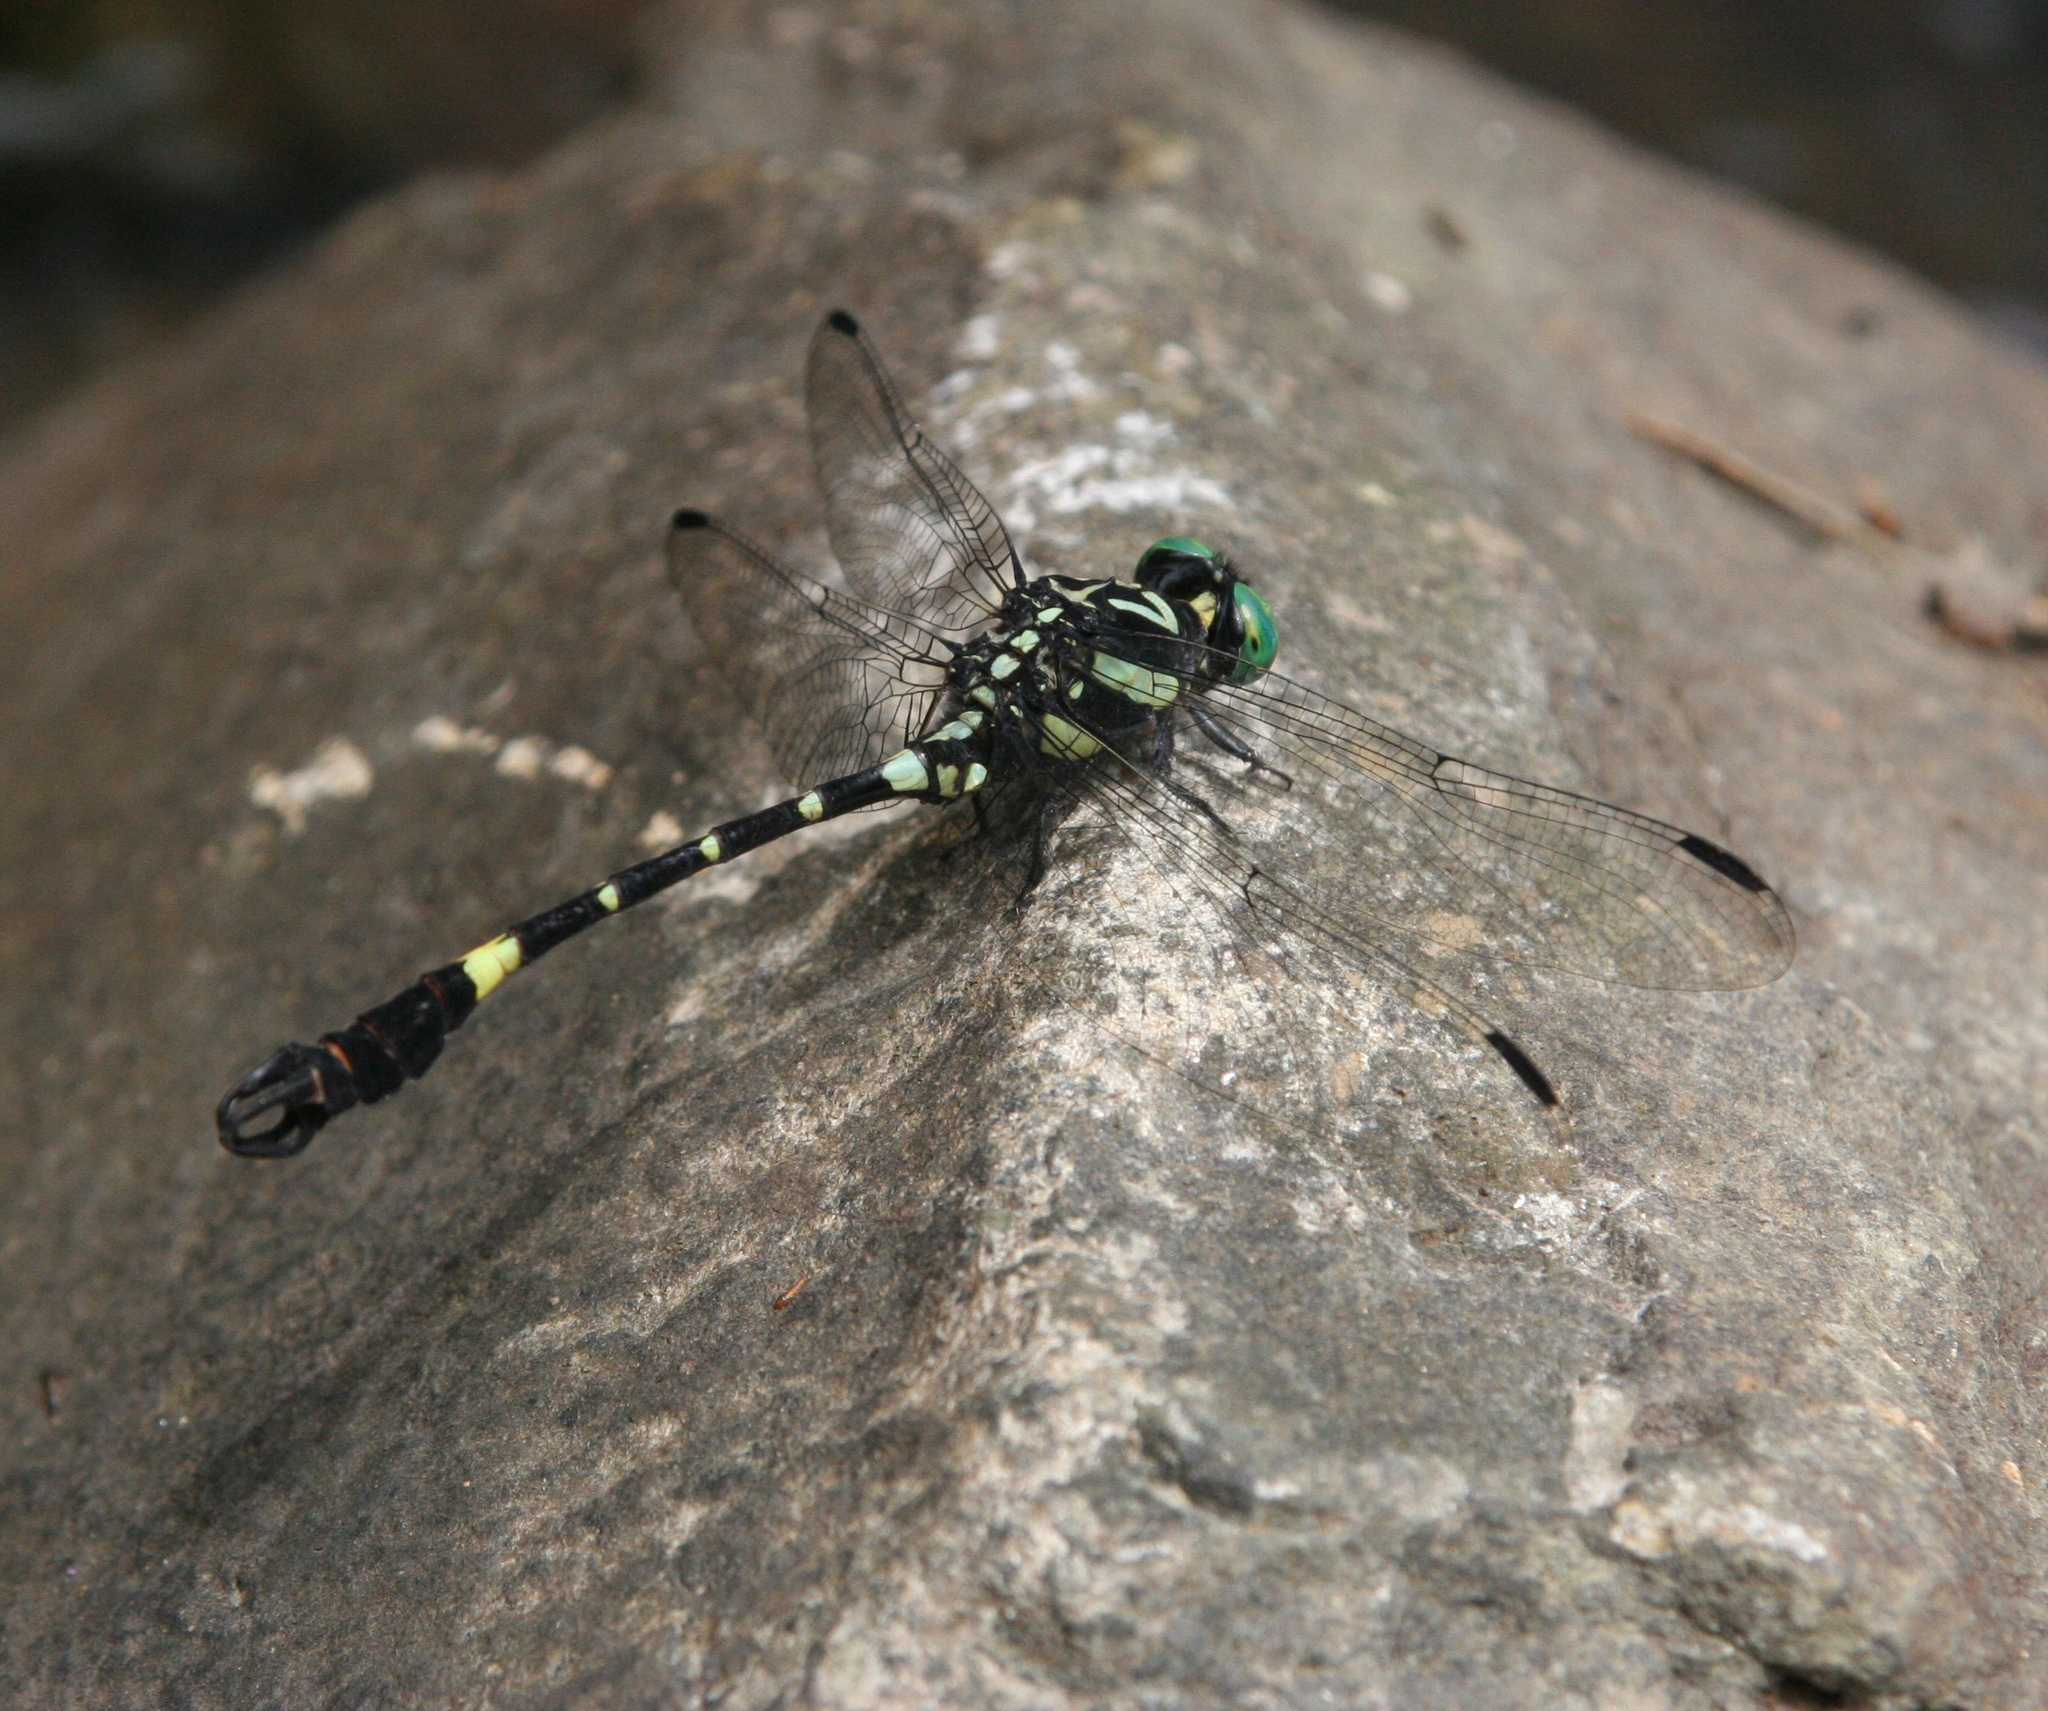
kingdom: Animalia
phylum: Arthropoda
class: Insecta
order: Odonata
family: Gomphidae
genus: Lamelligomphus
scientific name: Lamelligomphus castor
